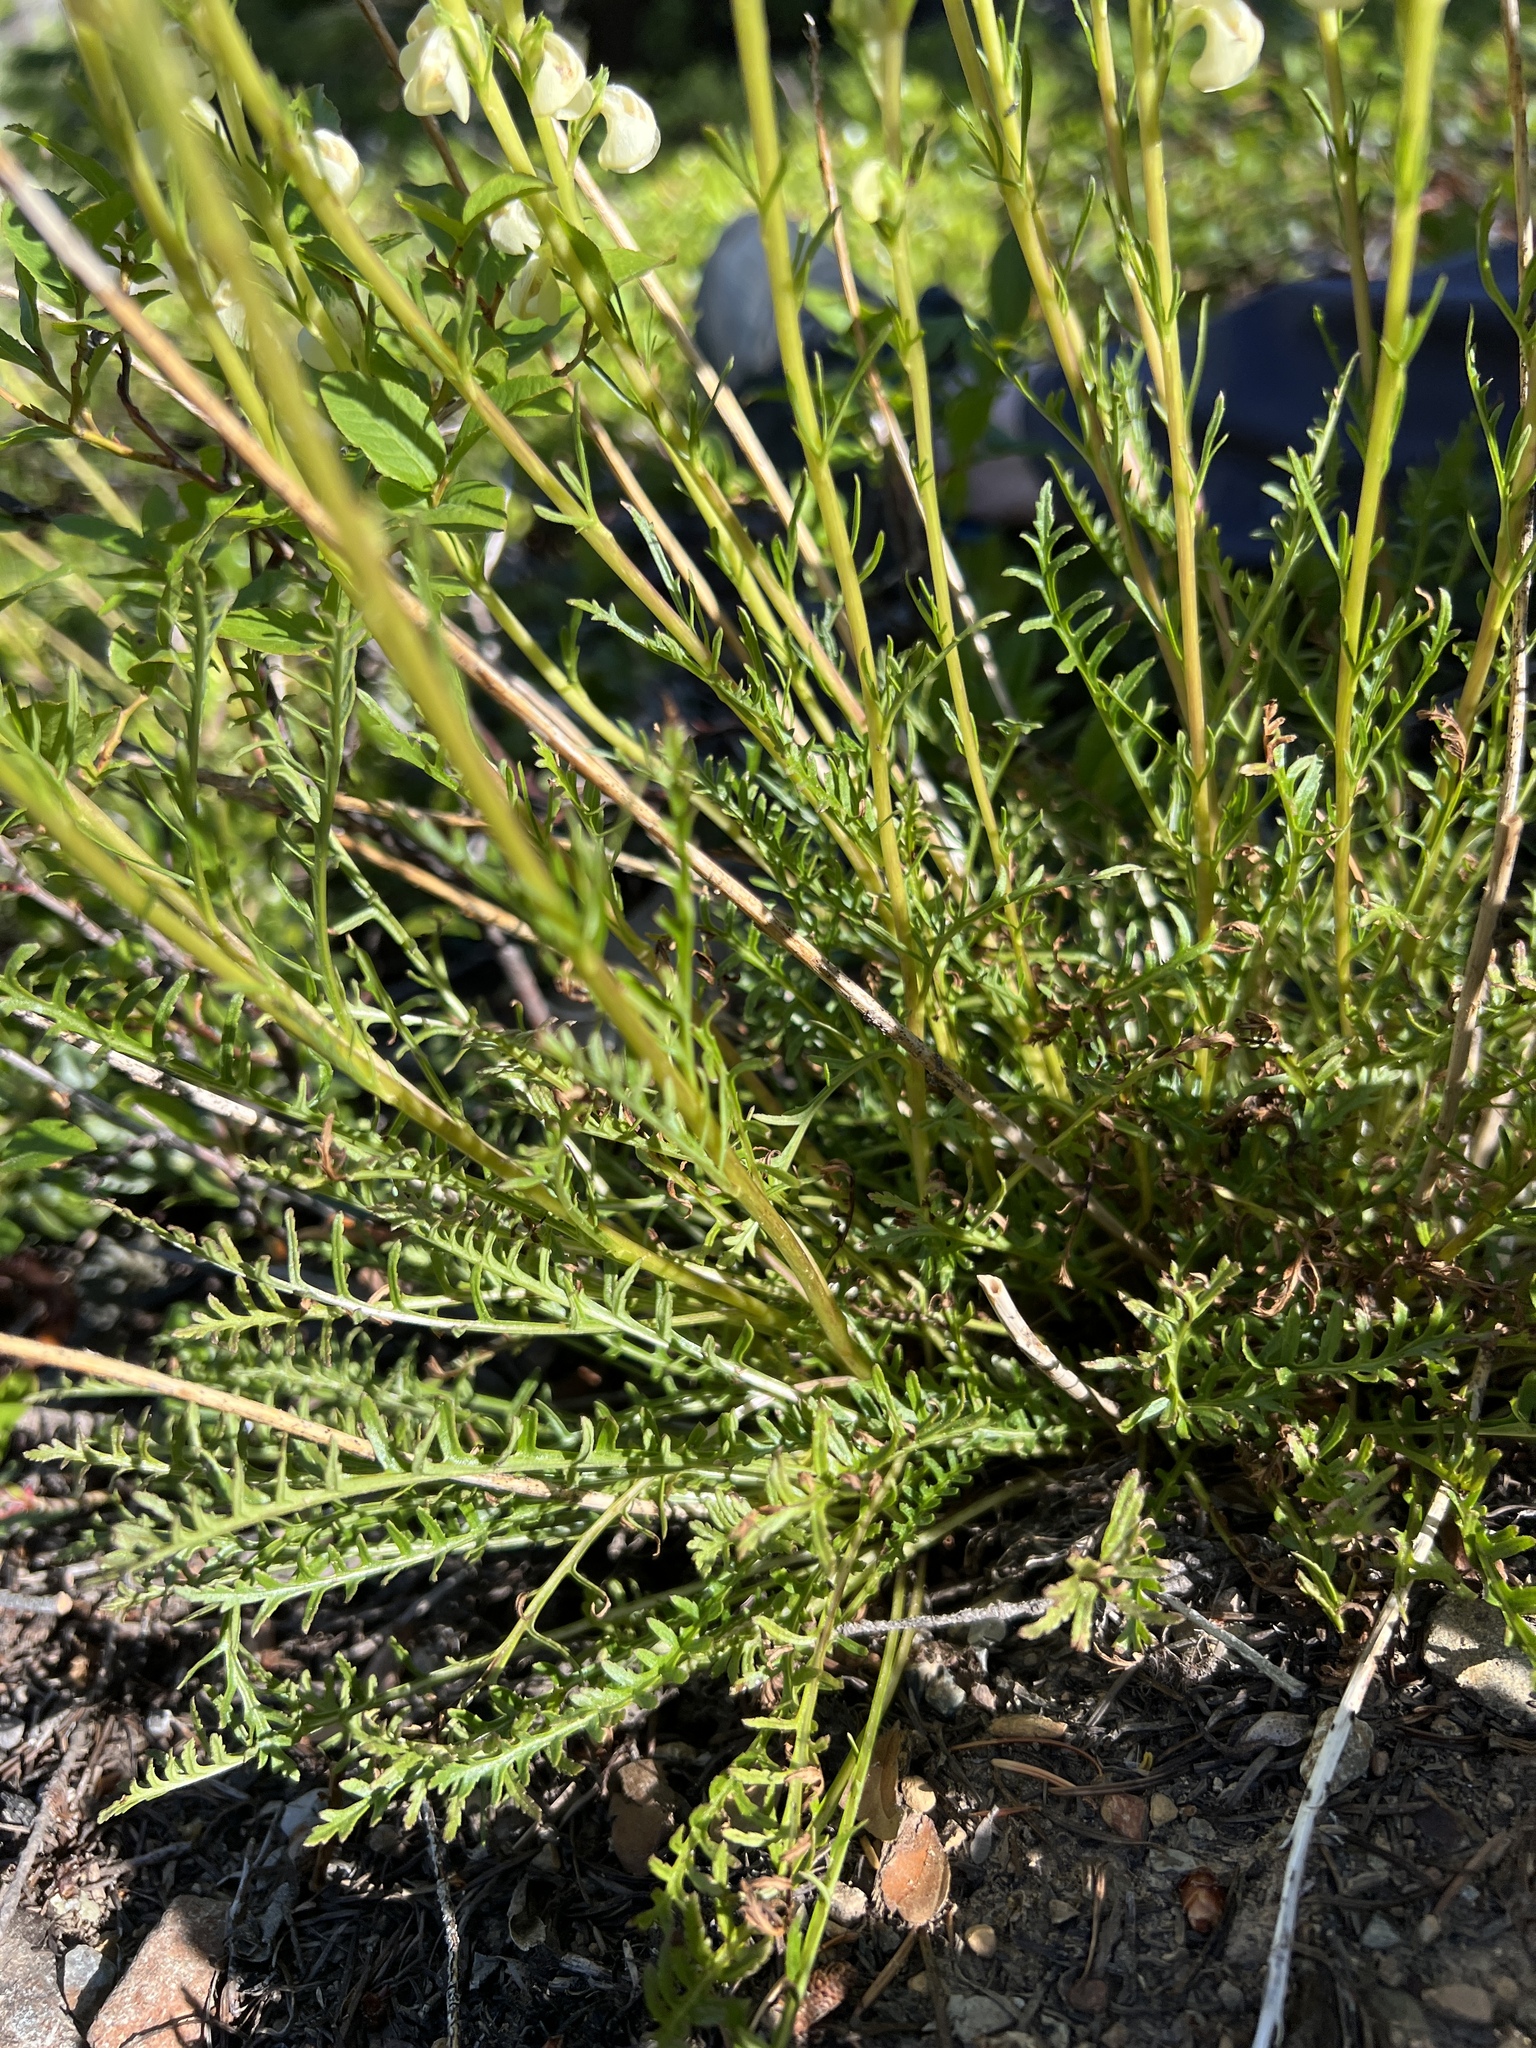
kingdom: Plantae
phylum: Tracheophyta
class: Magnoliopsida
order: Lamiales
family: Orobanchaceae
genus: Pedicularis
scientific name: Pedicularis contorta
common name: Coiled lousewort
